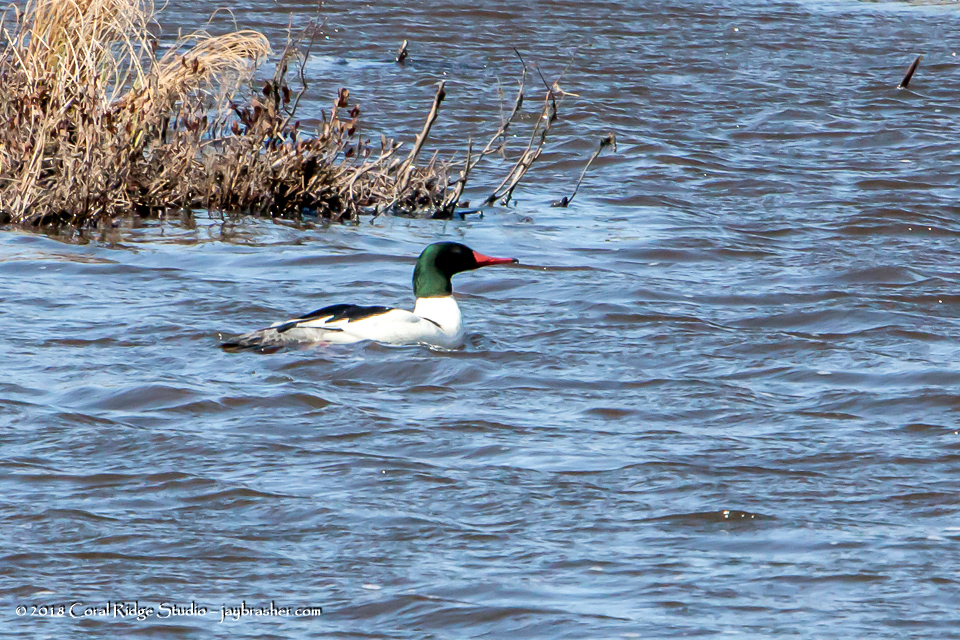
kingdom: Animalia
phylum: Chordata
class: Aves
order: Anseriformes
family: Anatidae
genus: Mergus
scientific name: Mergus merganser
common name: Common merganser
